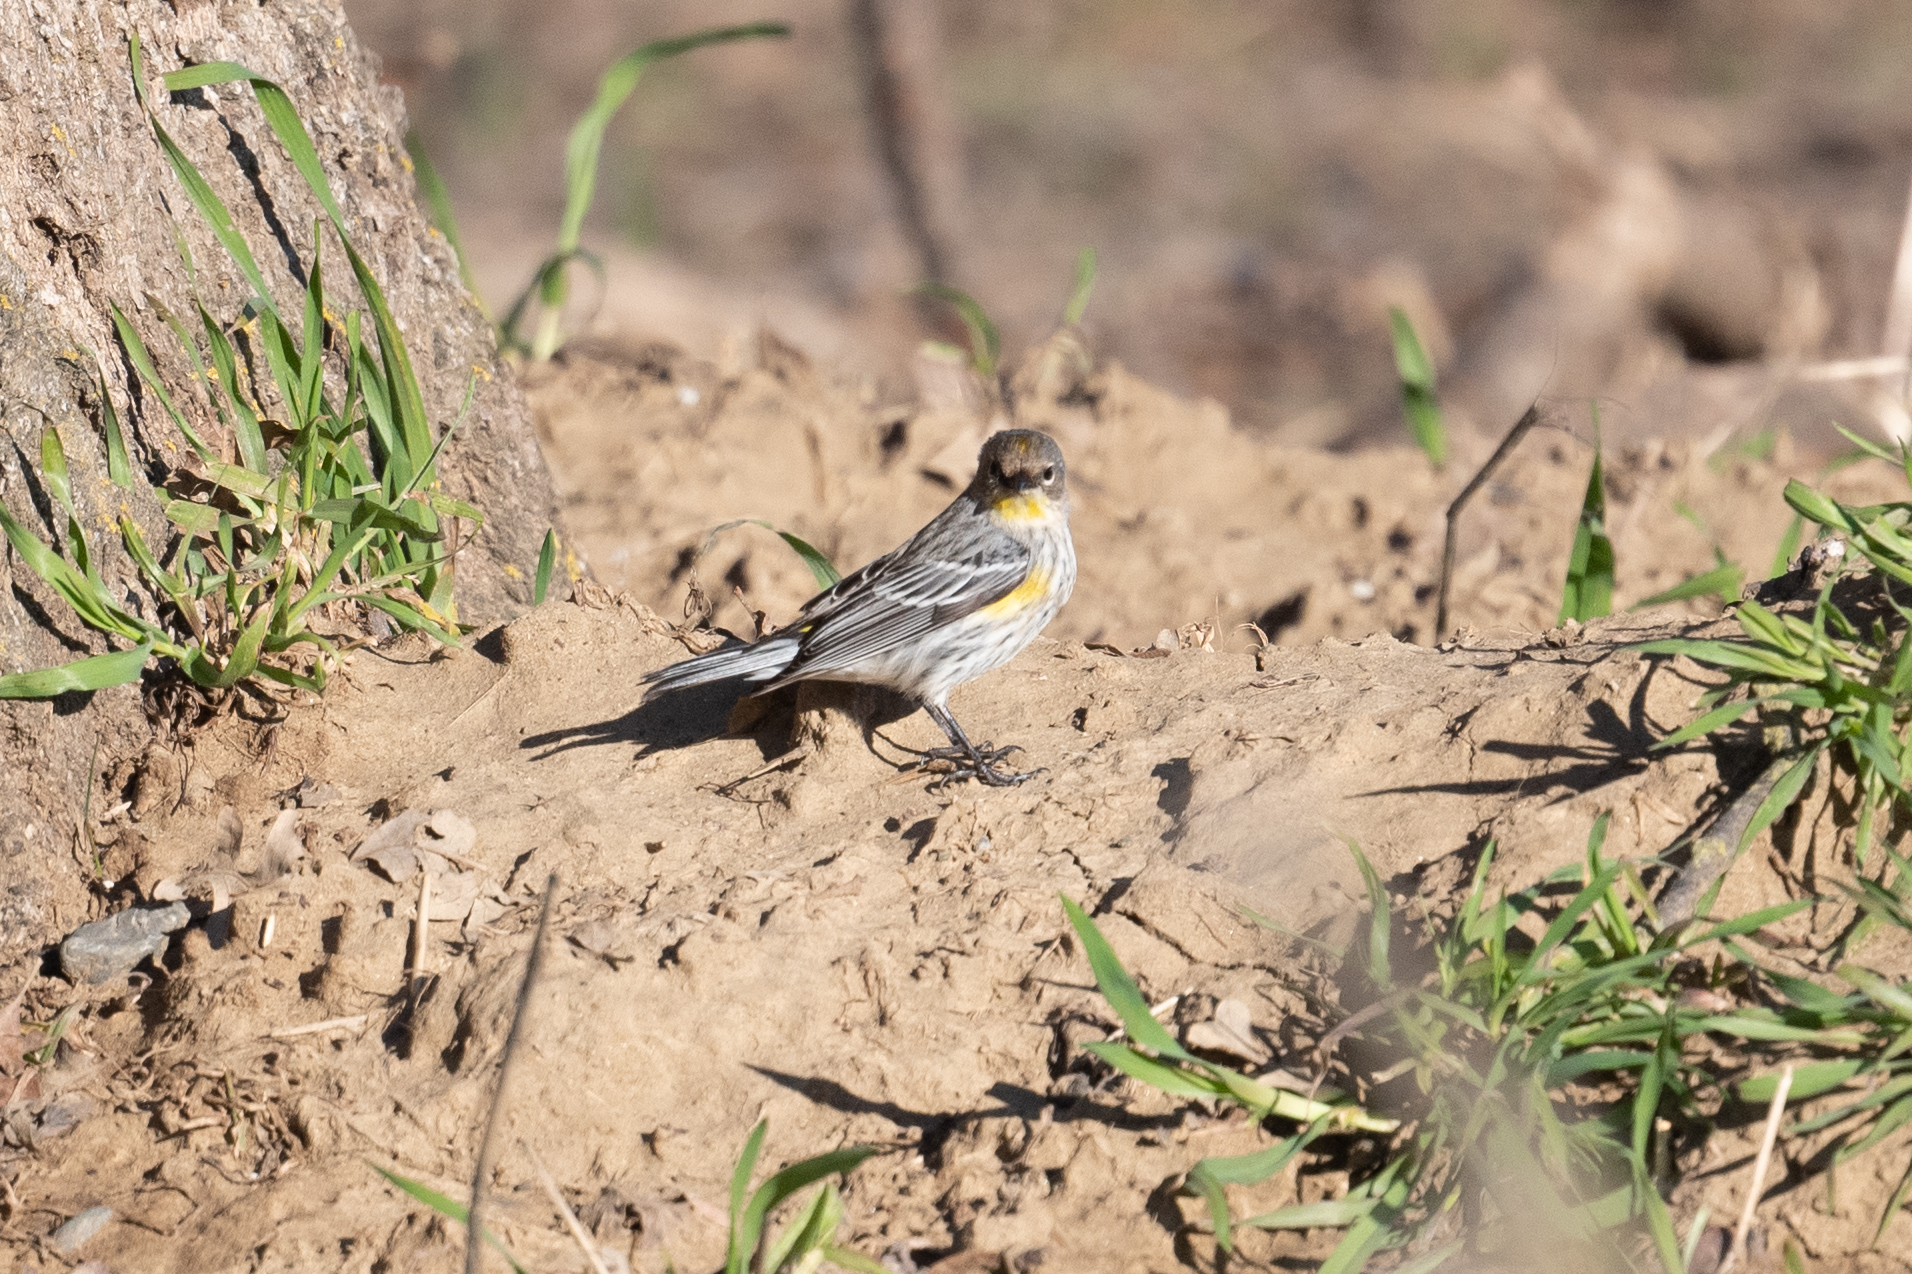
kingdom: Animalia
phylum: Chordata
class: Aves
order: Passeriformes
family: Parulidae
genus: Setophaga
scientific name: Setophaga coronata
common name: Myrtle warbler
